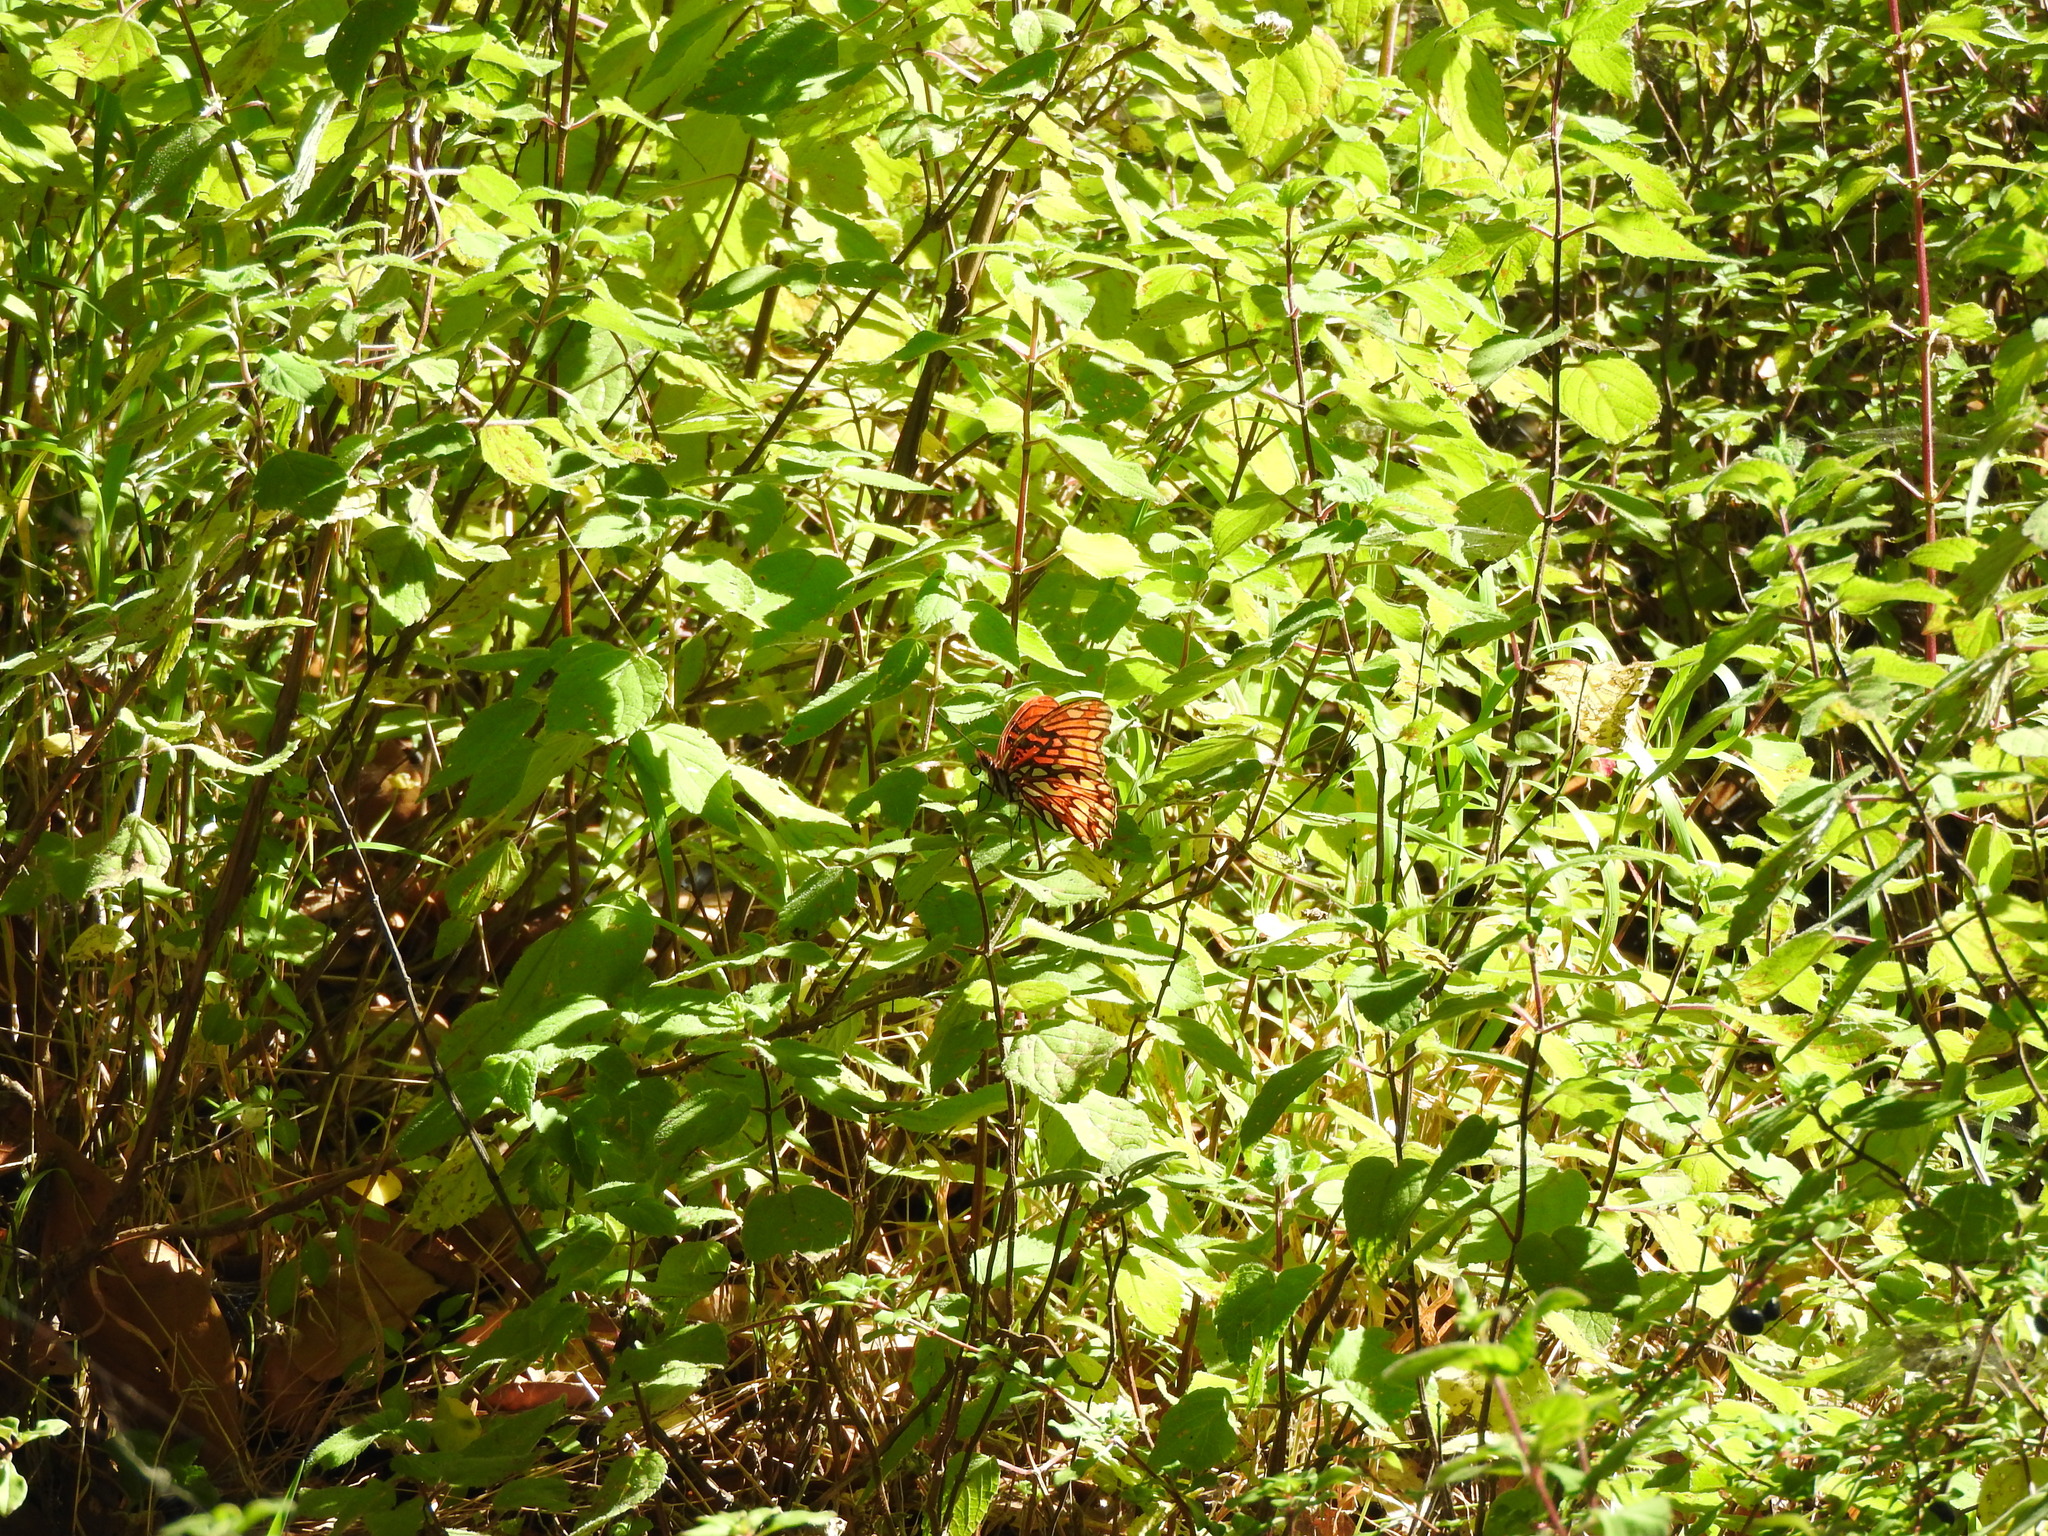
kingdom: Animalia
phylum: Arthropoda
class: Insecta
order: Lepidoptera
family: Nymphalidae
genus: Dione
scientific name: Dione moneta
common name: Mexican silverspot
